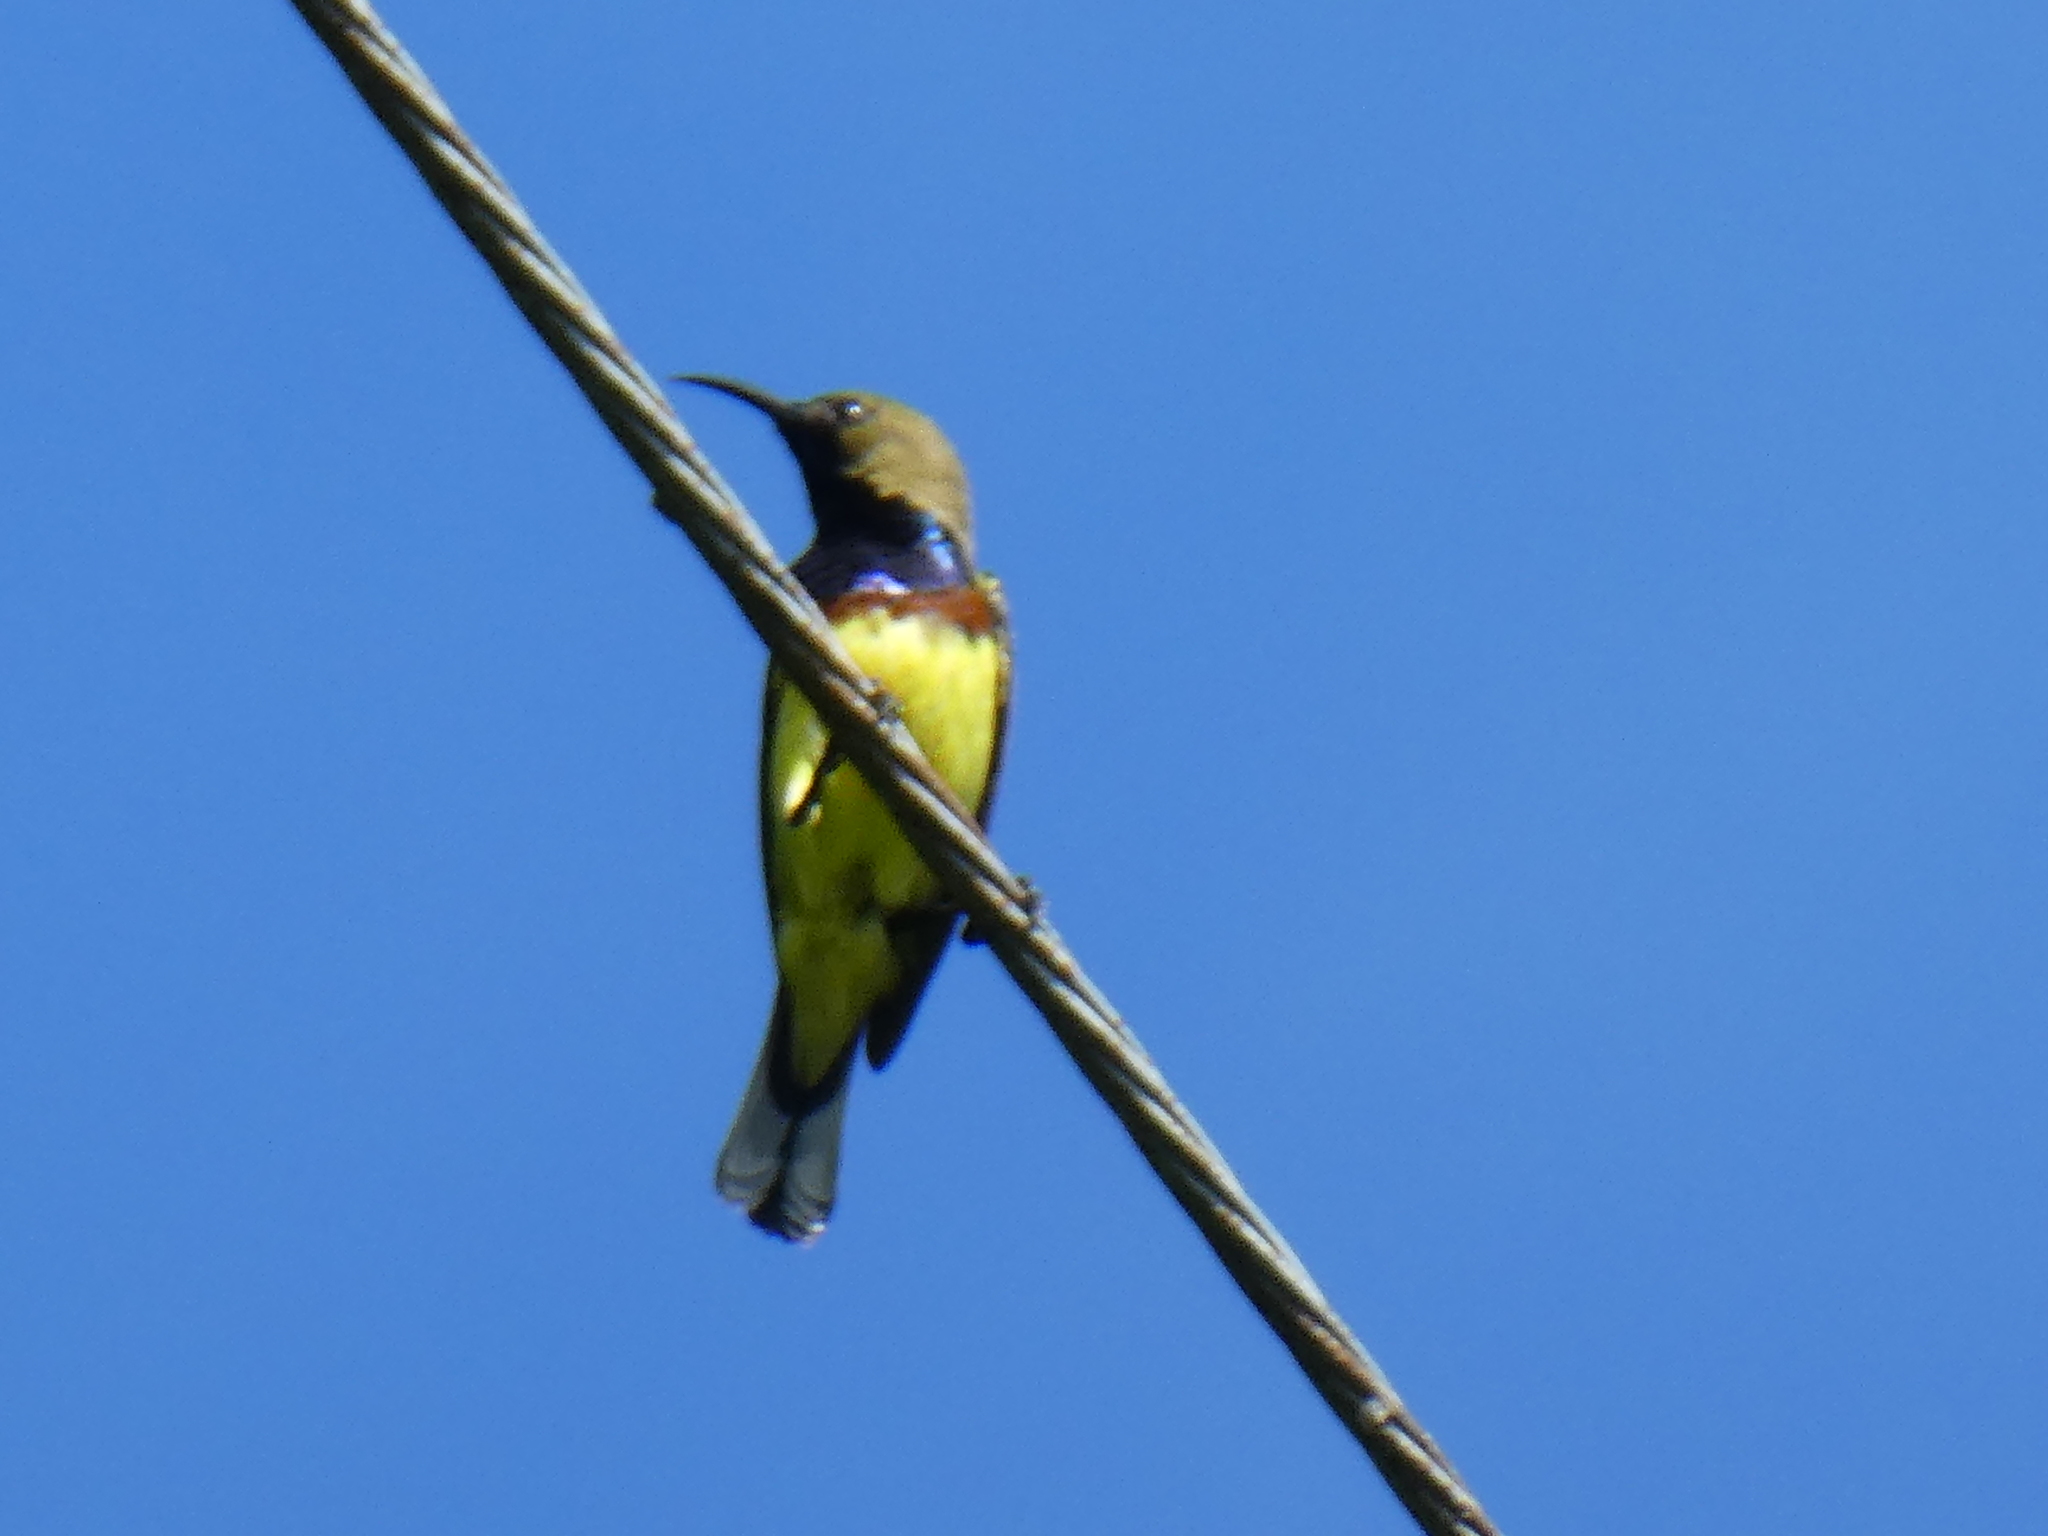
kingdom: Animalia
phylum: Chordata
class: Aves
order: Passeriformes
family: Nectariniidae
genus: Cinnyris
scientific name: Cinnyris
